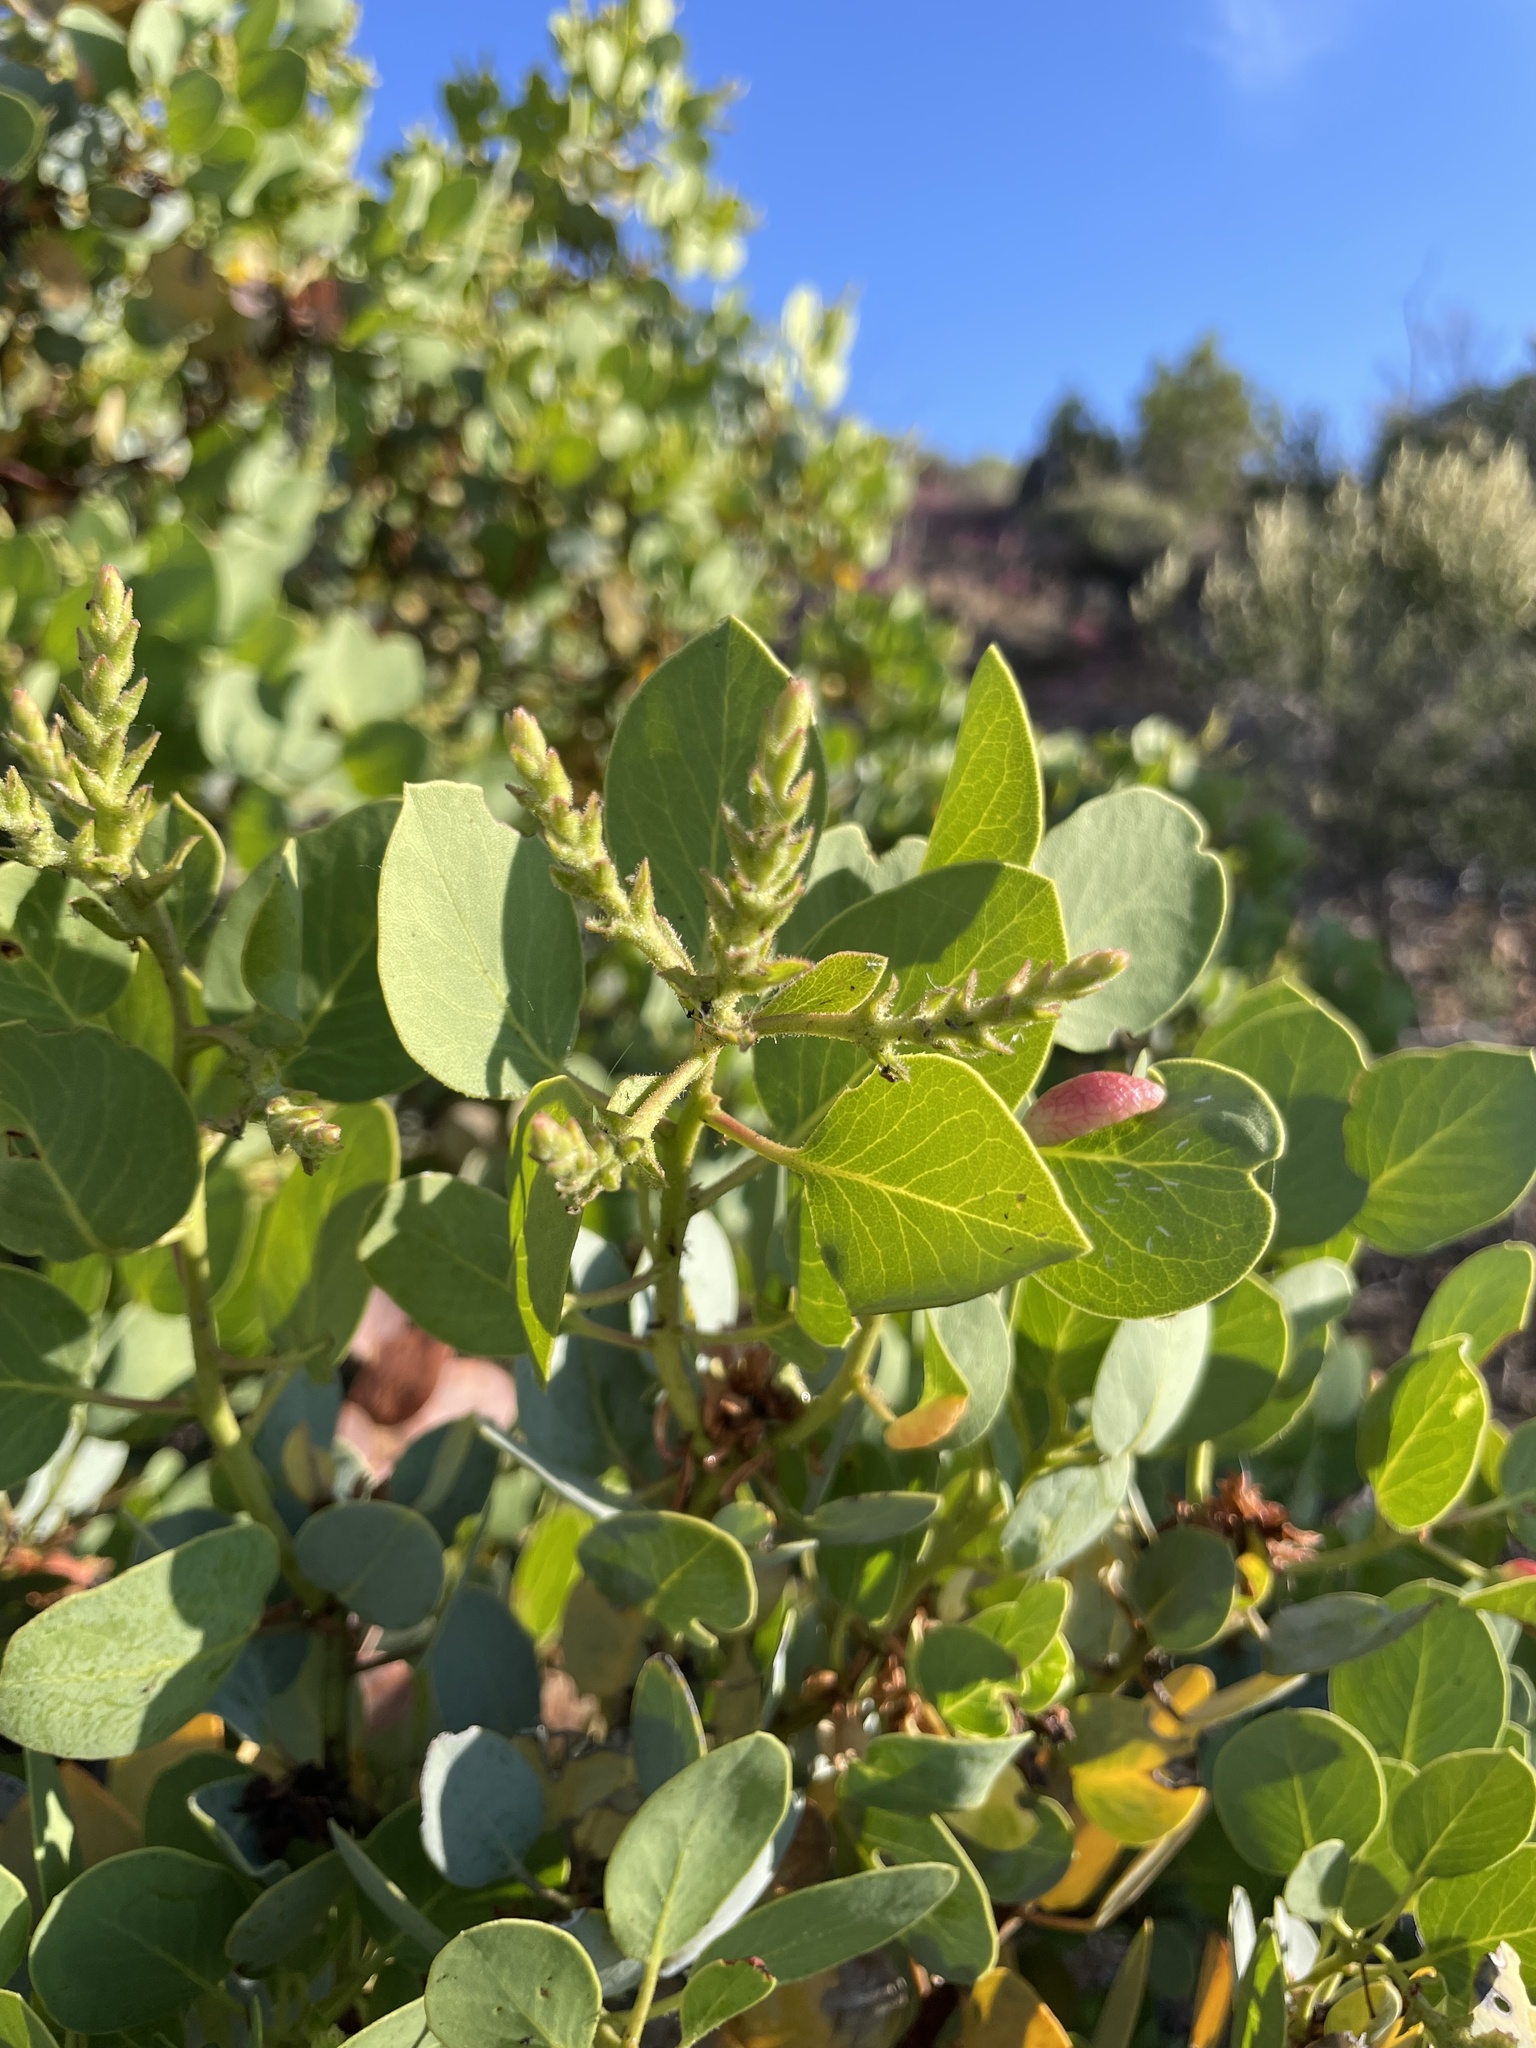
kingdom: Plantae
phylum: Tracheophyta
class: Magnoliopsida
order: Ericales
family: Ericaceae
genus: Arctostaphylos
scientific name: Arctostaphylos glauca
